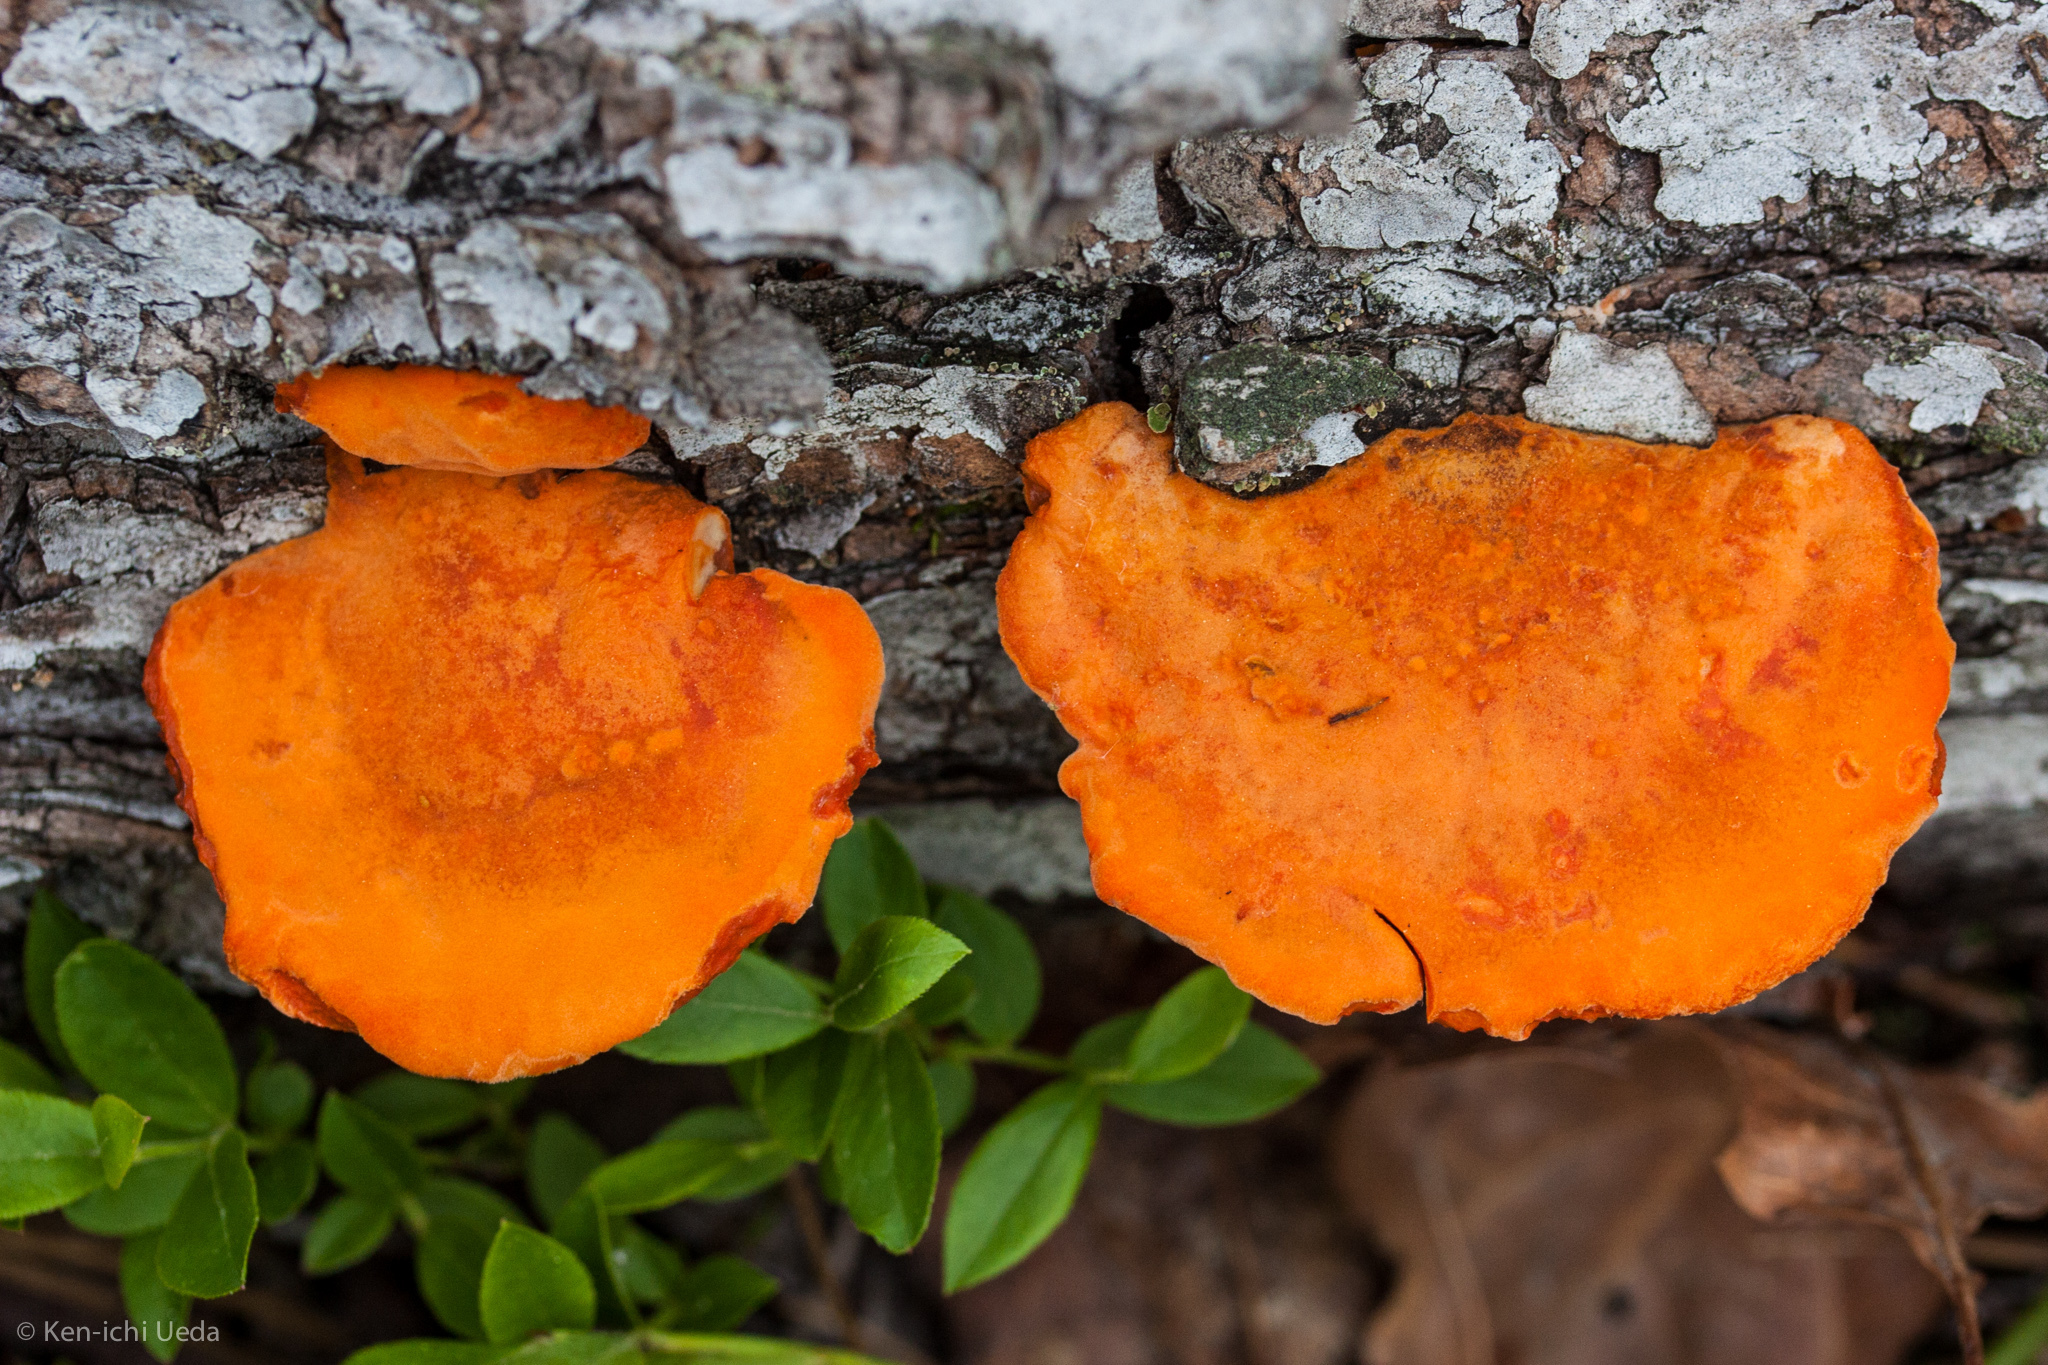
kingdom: Fungi
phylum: Basidiomycota
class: Agaricomycetes
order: Polyporales
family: Polyporaceae
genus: Trametes
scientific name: Trametes cinnabarina
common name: Northern cinnabar polypore
